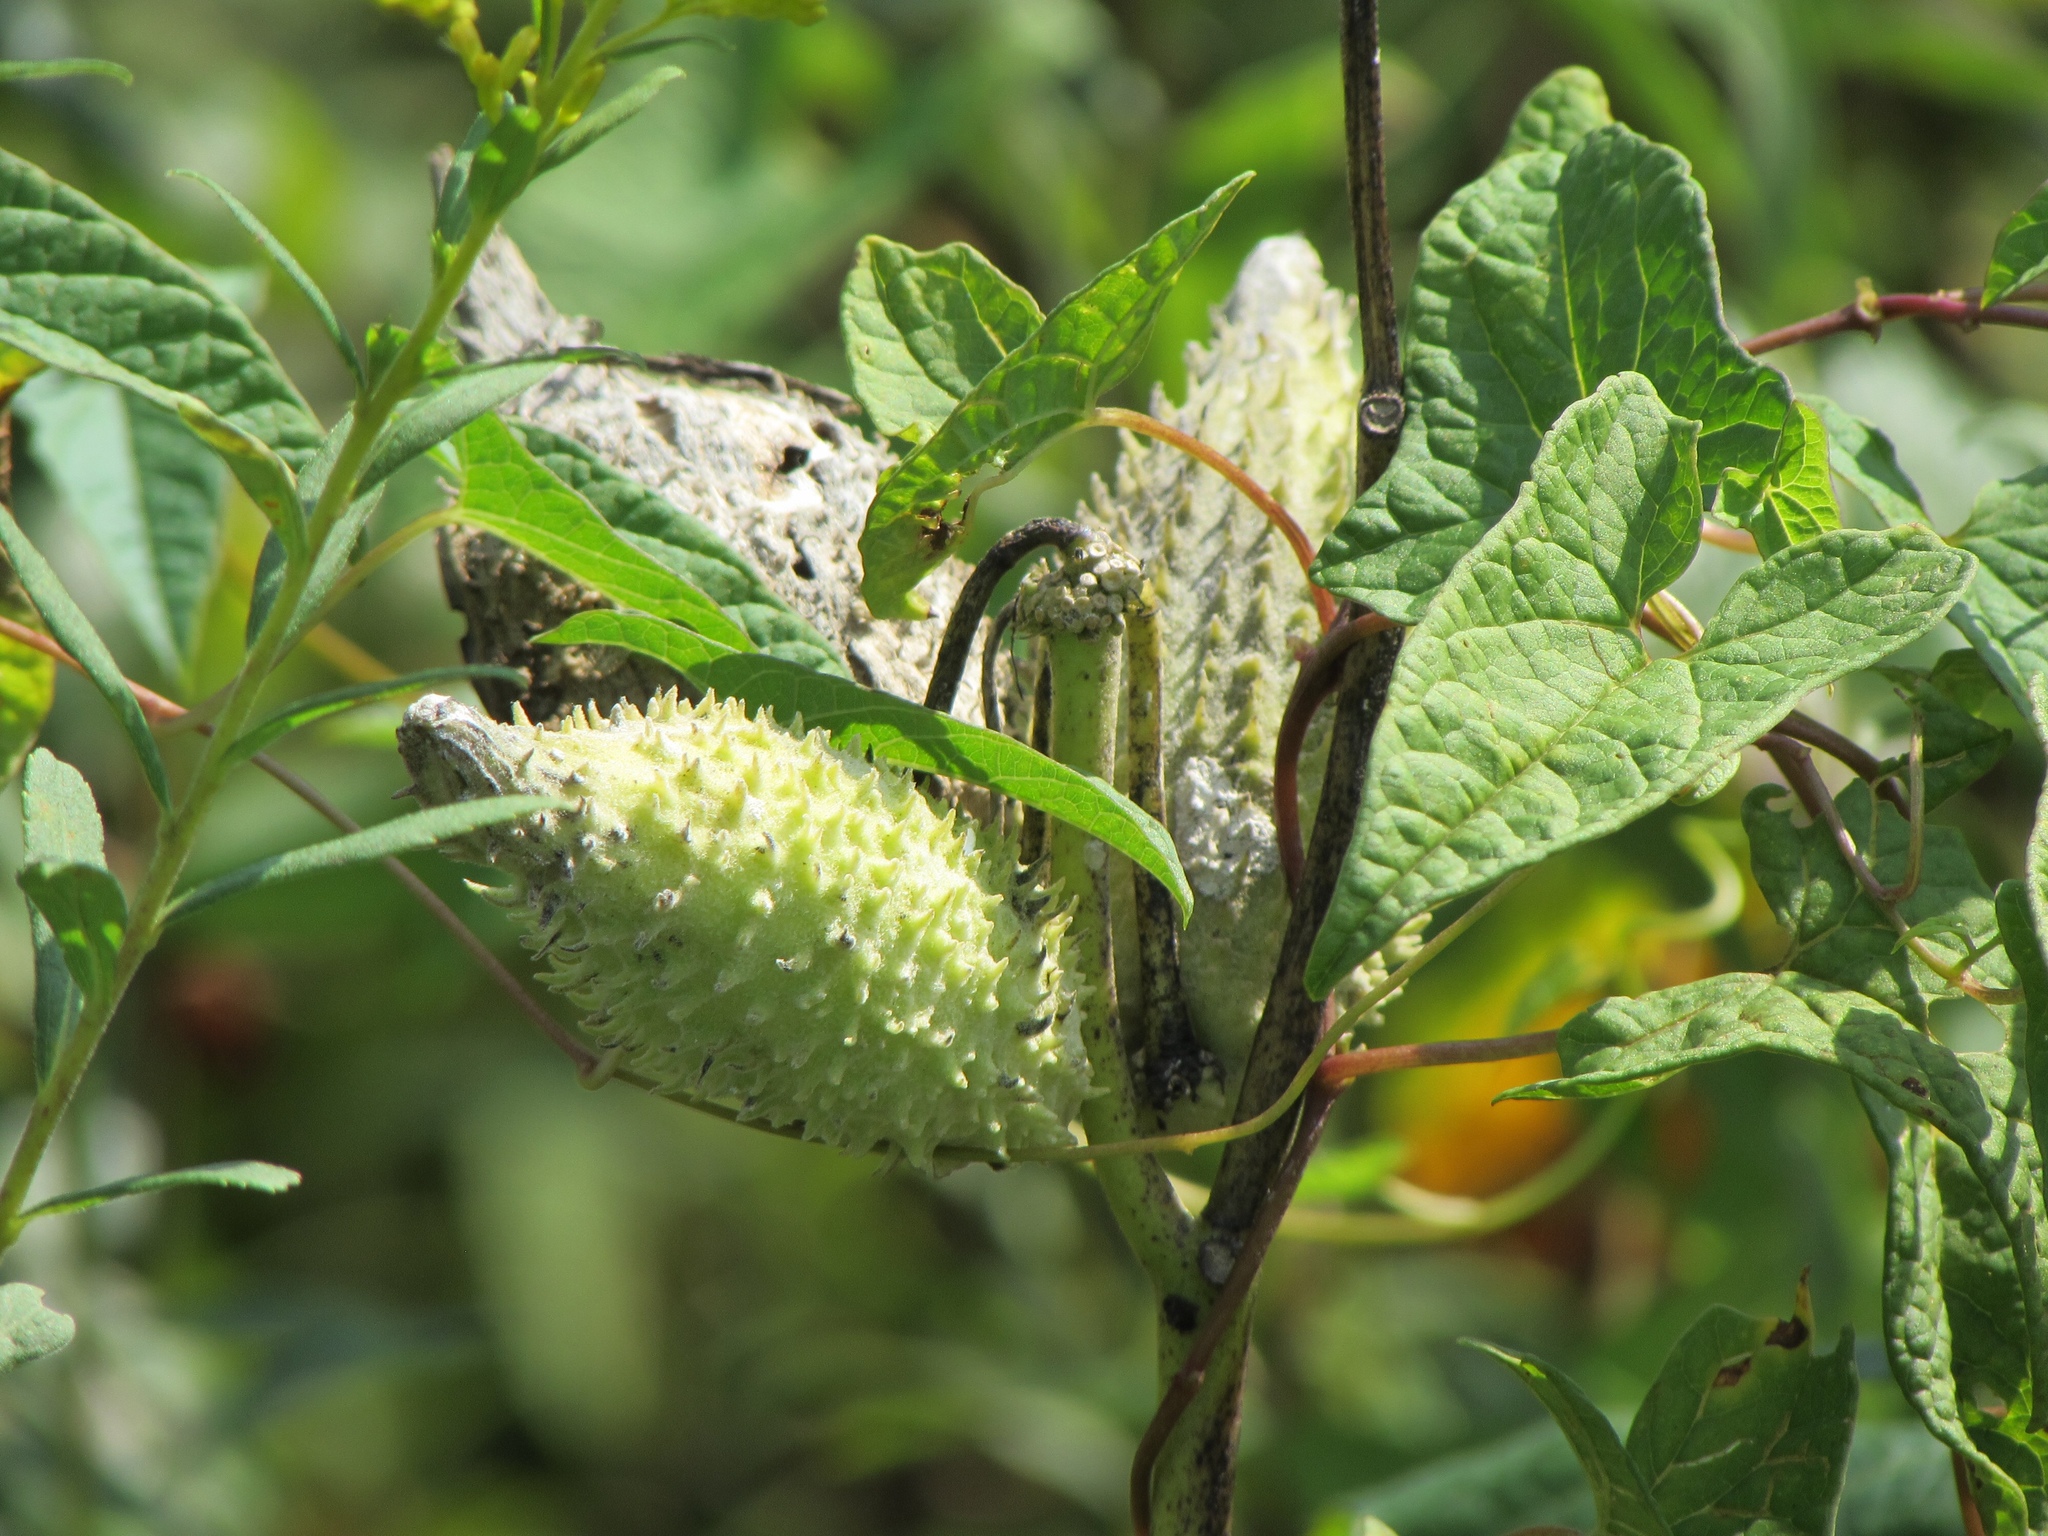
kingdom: Plantae
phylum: Tracheophyta
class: Magnoliopsida
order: Gentianales
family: Apocynaceae
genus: Asclepias
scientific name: Asclepias syriaca
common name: Common milkweed
